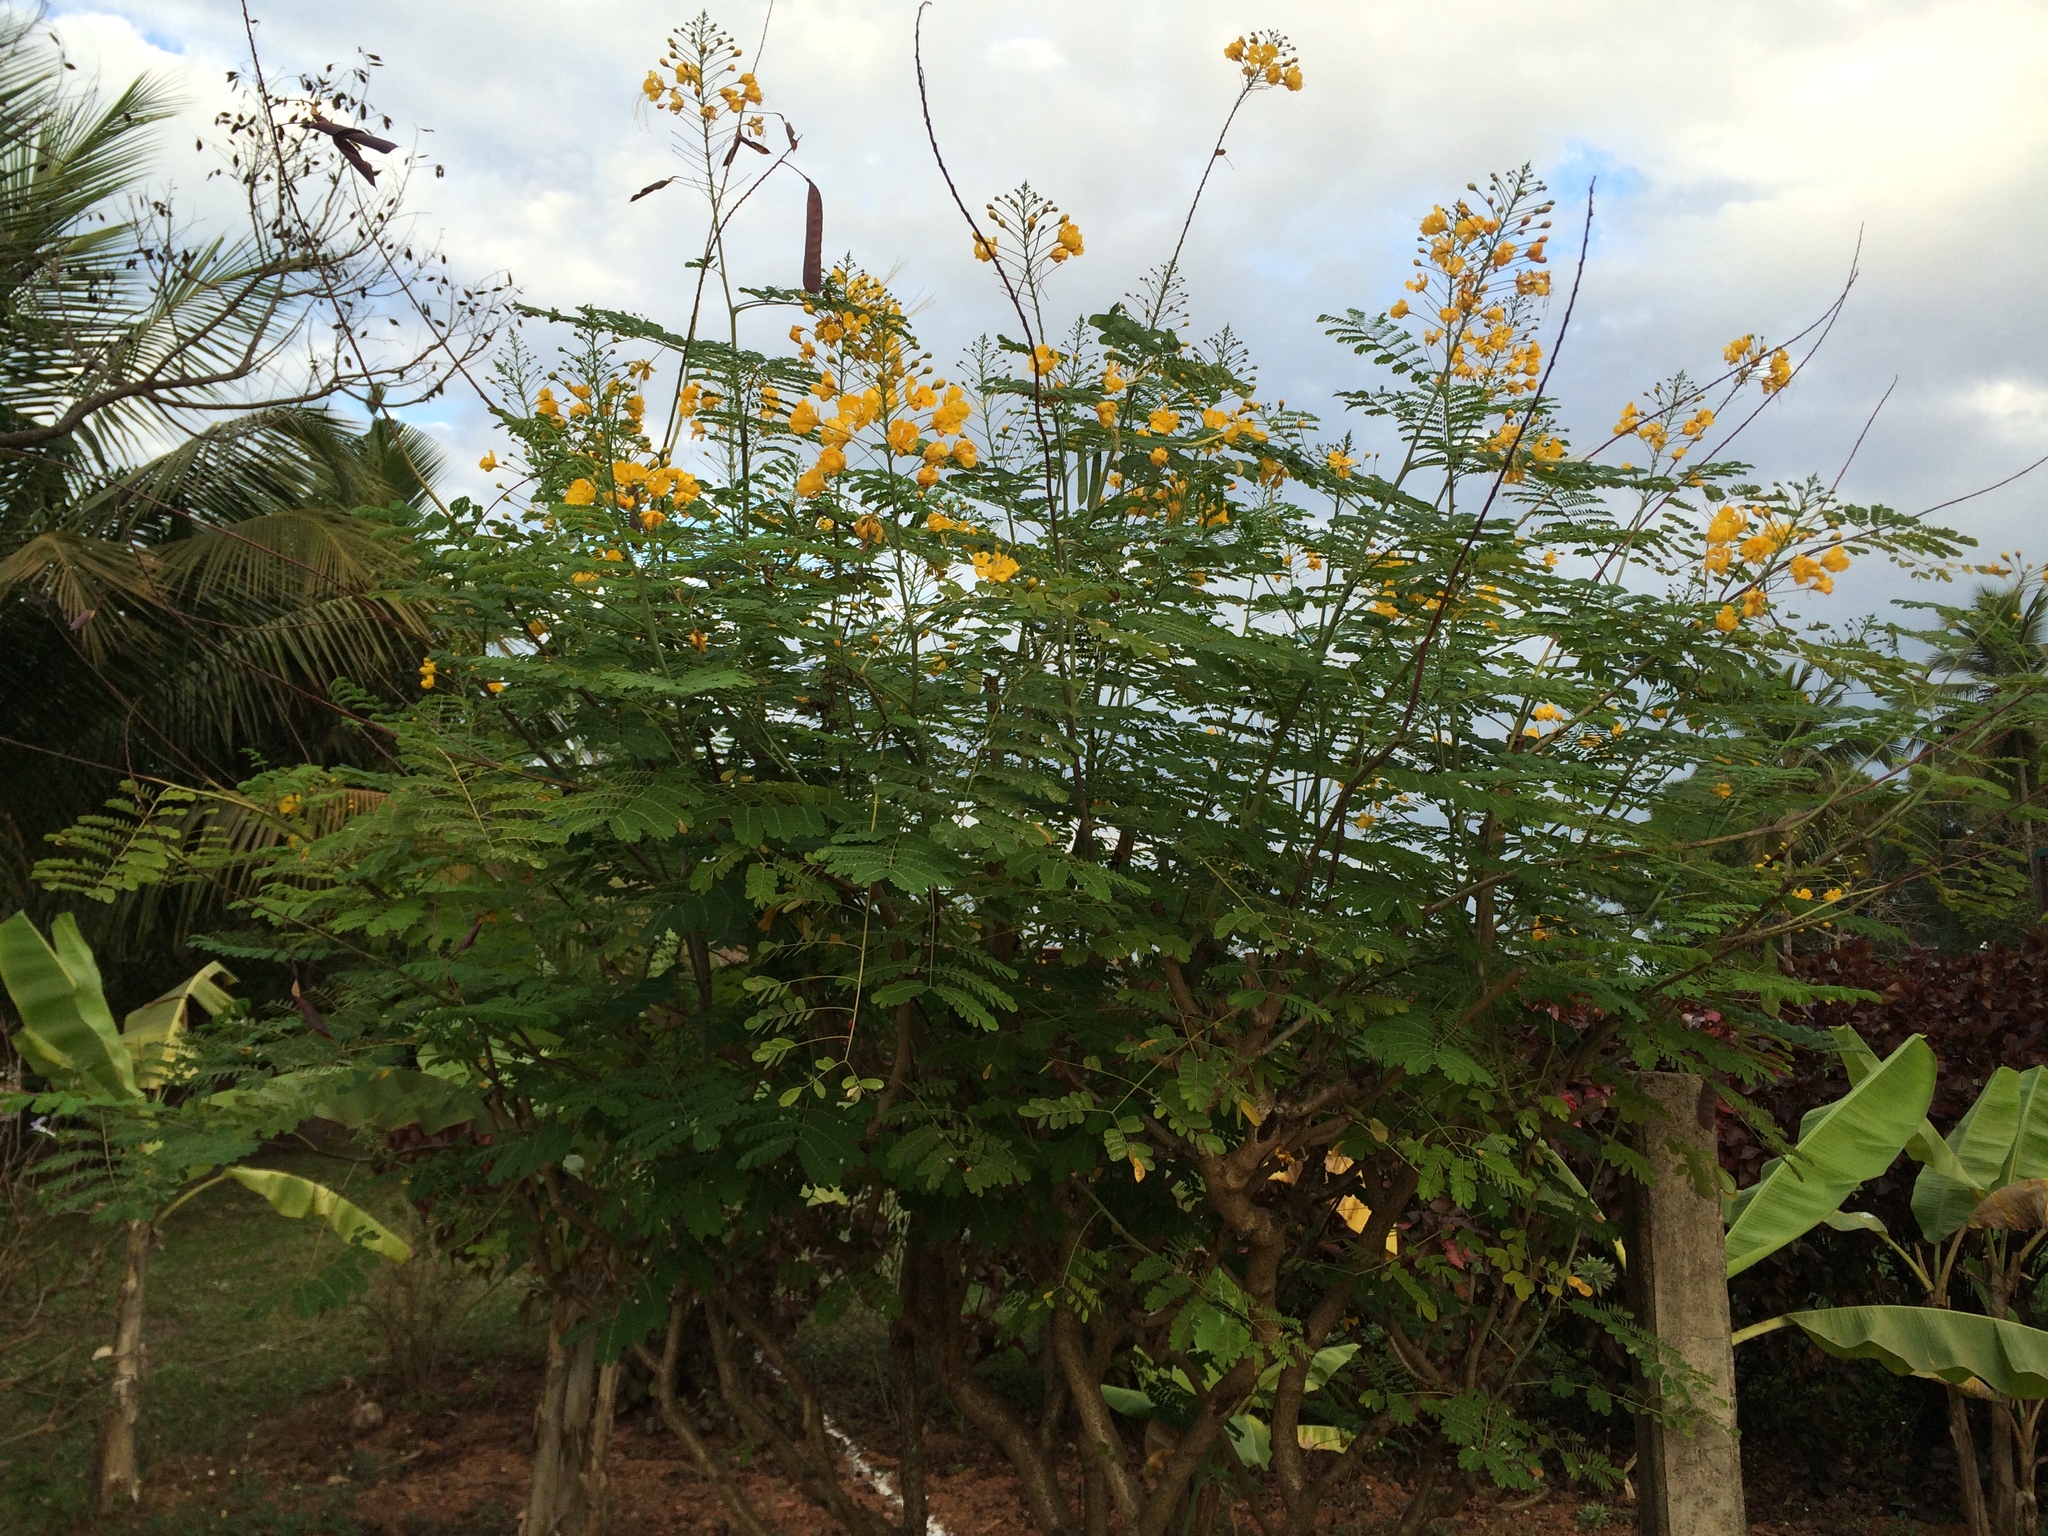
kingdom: Plantae
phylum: Tracheophyta
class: Magnoliopsida
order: Fabales
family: Fabaceae
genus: Caesalpinia
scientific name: Caesalpinia pulcherrima
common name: Pride-of-barbados
